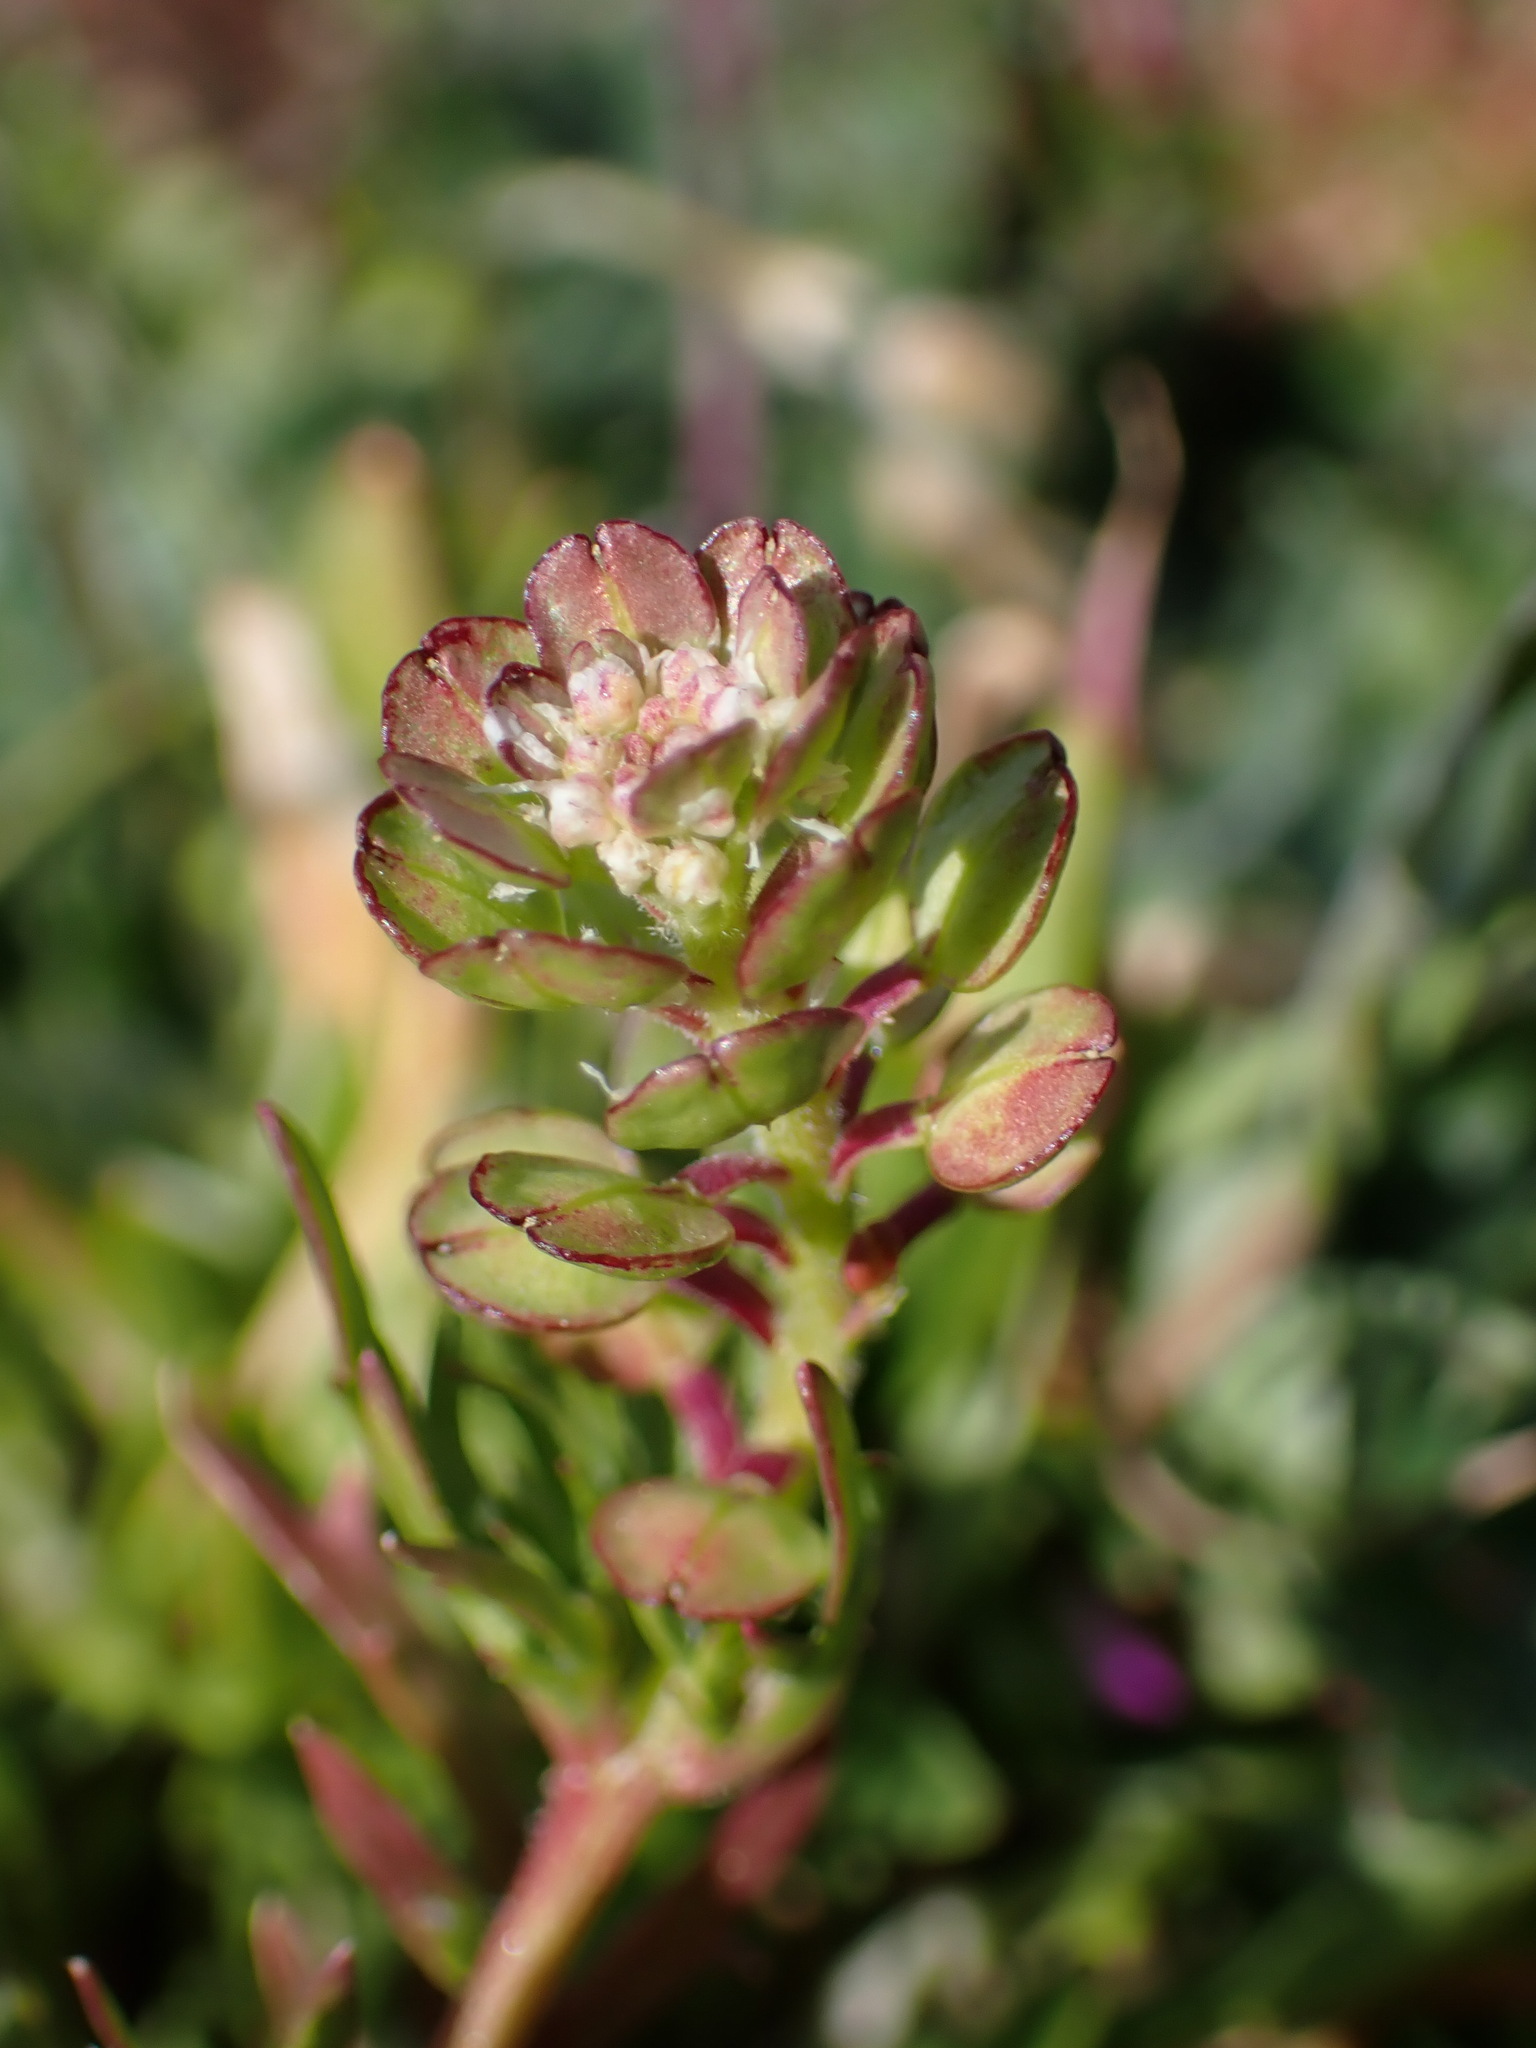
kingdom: Plantae
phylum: Tracheophyta
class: Magnoliopsida
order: Brassicales
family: Brassicaceae
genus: Lepidium
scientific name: Lepidium nitidum
